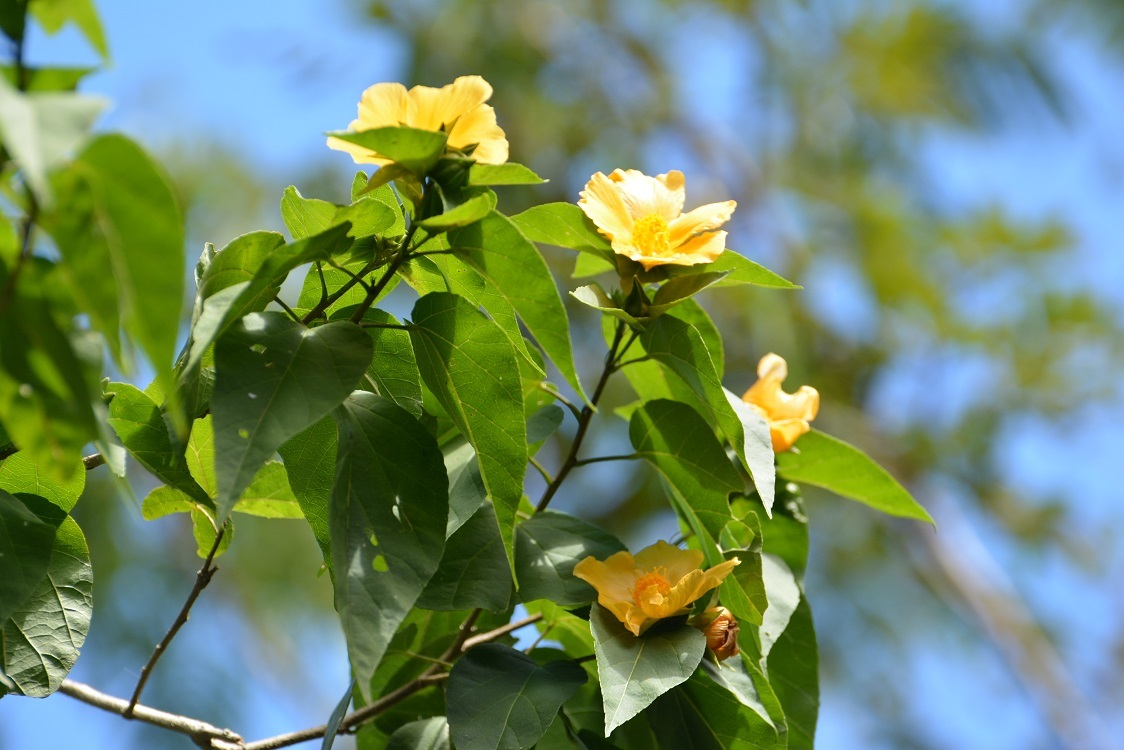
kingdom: Plantae
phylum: Tracheophyta
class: Magnoliopsida
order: Malvales
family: Malvaceae
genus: Dendrosida
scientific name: Dendrosida sharpiana
